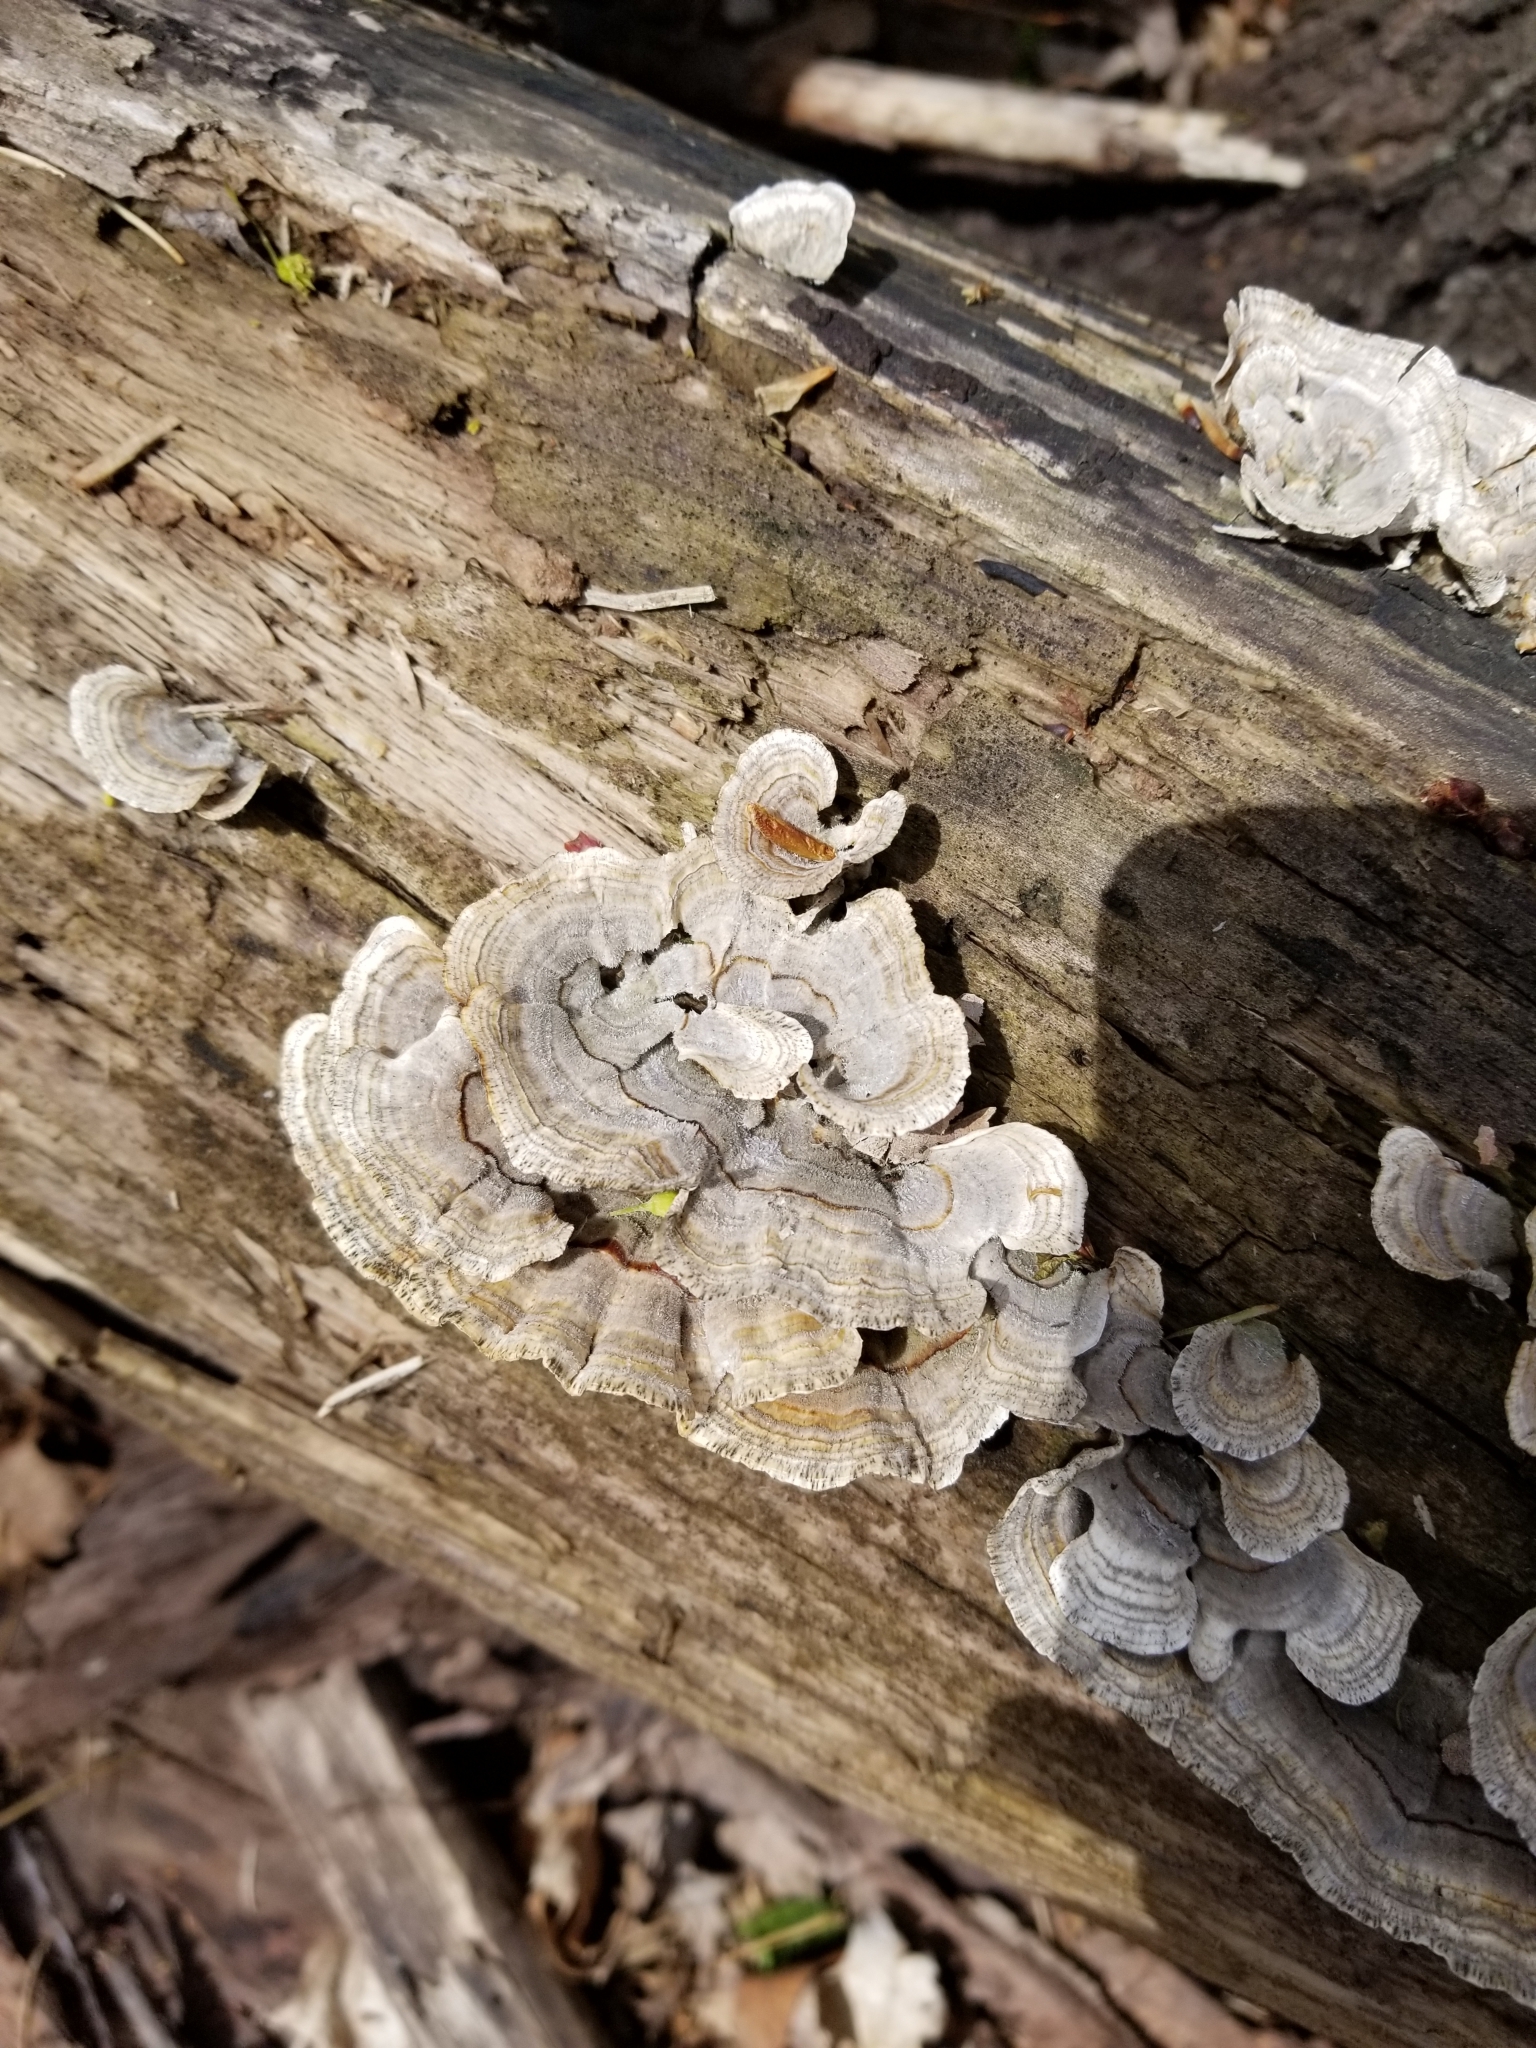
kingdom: Fungi
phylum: Basidiomycota
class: Agaricomycetes
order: Polyporales
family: Polyporaceae
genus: Trametes
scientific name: Trametes versicolor
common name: Turkeytail
